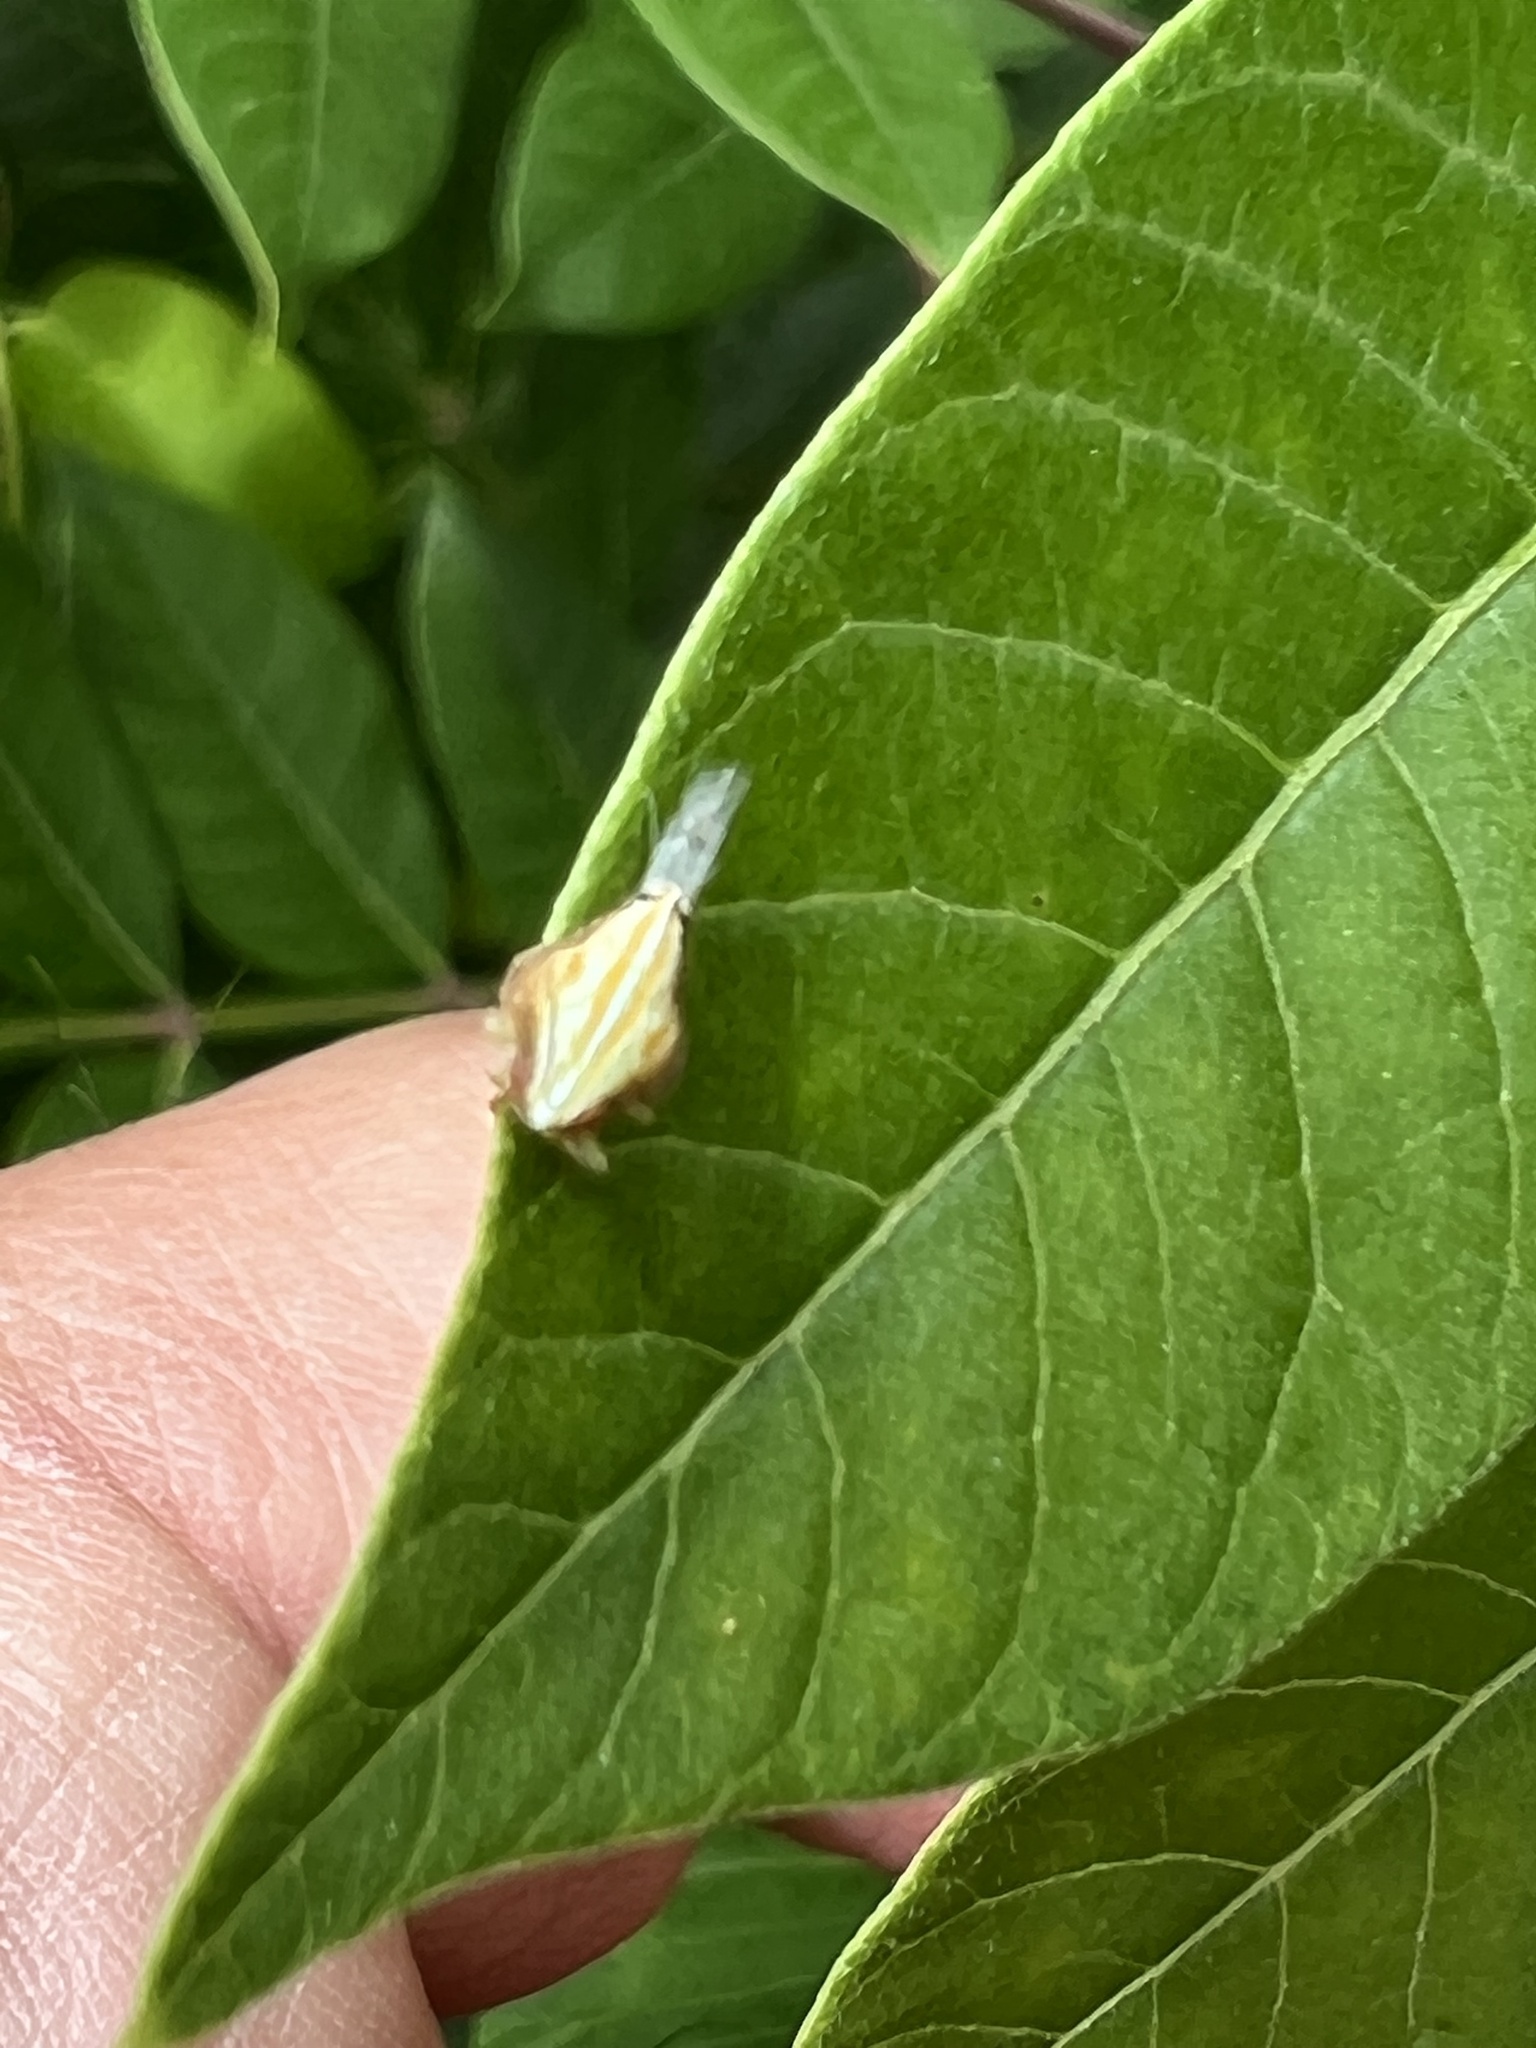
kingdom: Animalia
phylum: Arthropoda
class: Insecta
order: Hemiptera
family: Issidae
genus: Aplos
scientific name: Aplos simplex
